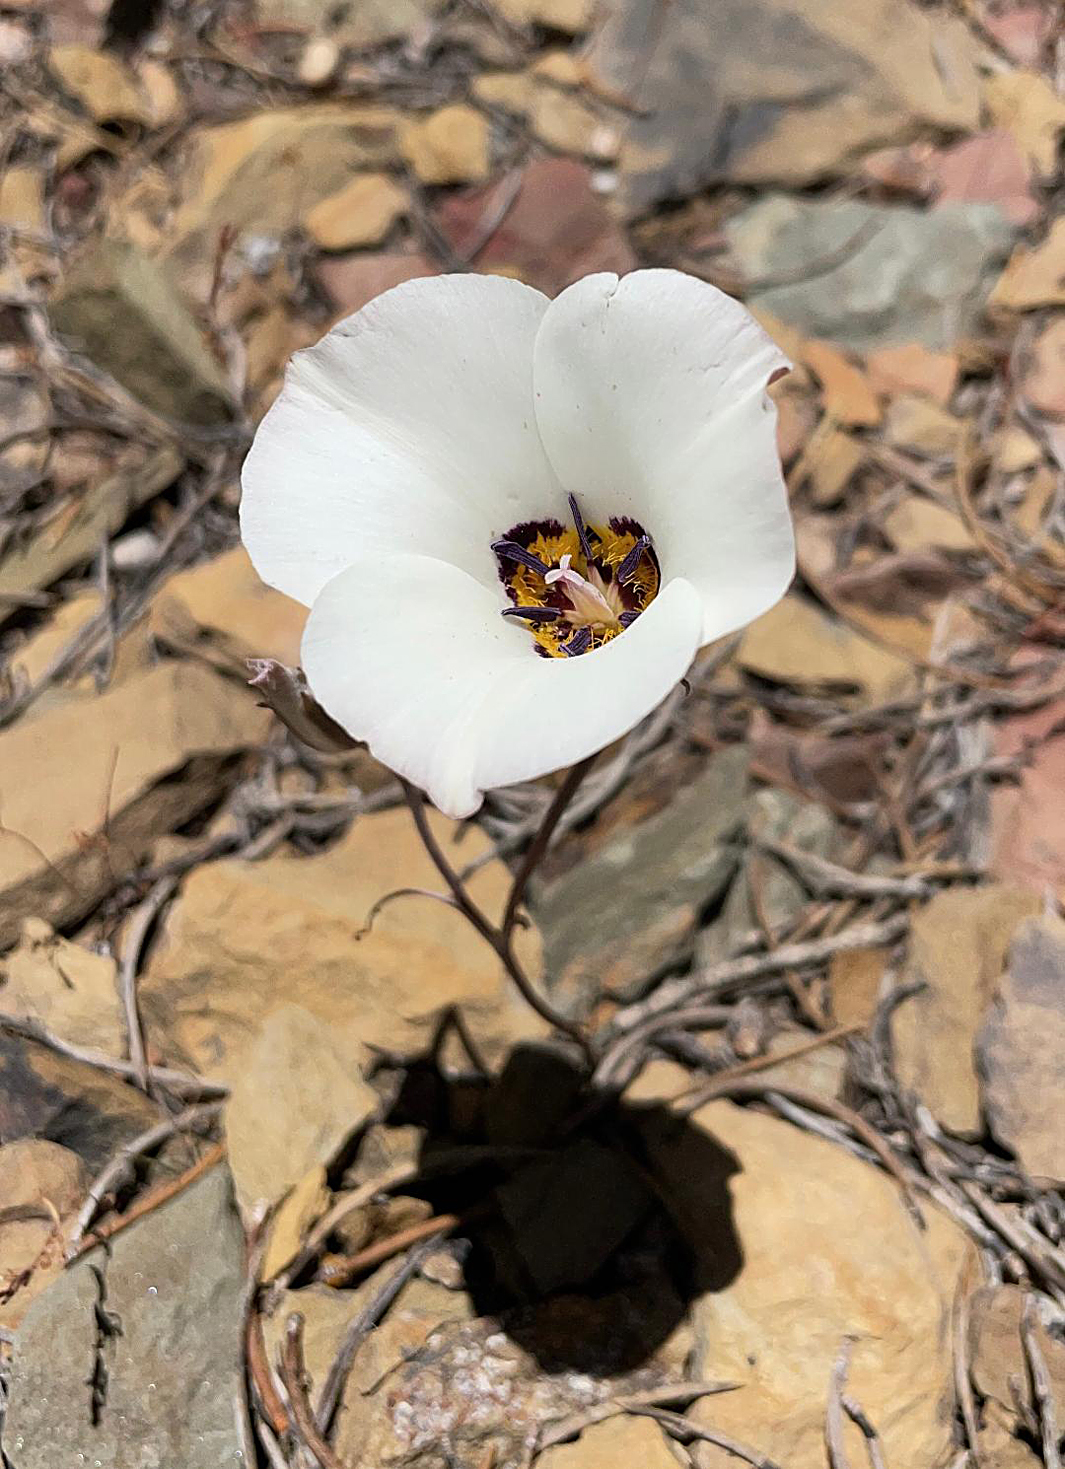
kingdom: Plantae
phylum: Tracheophyta
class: Liliopsida
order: Liliales
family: Liliaceae
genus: Calochortus
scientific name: Calochortus bruneaunis
